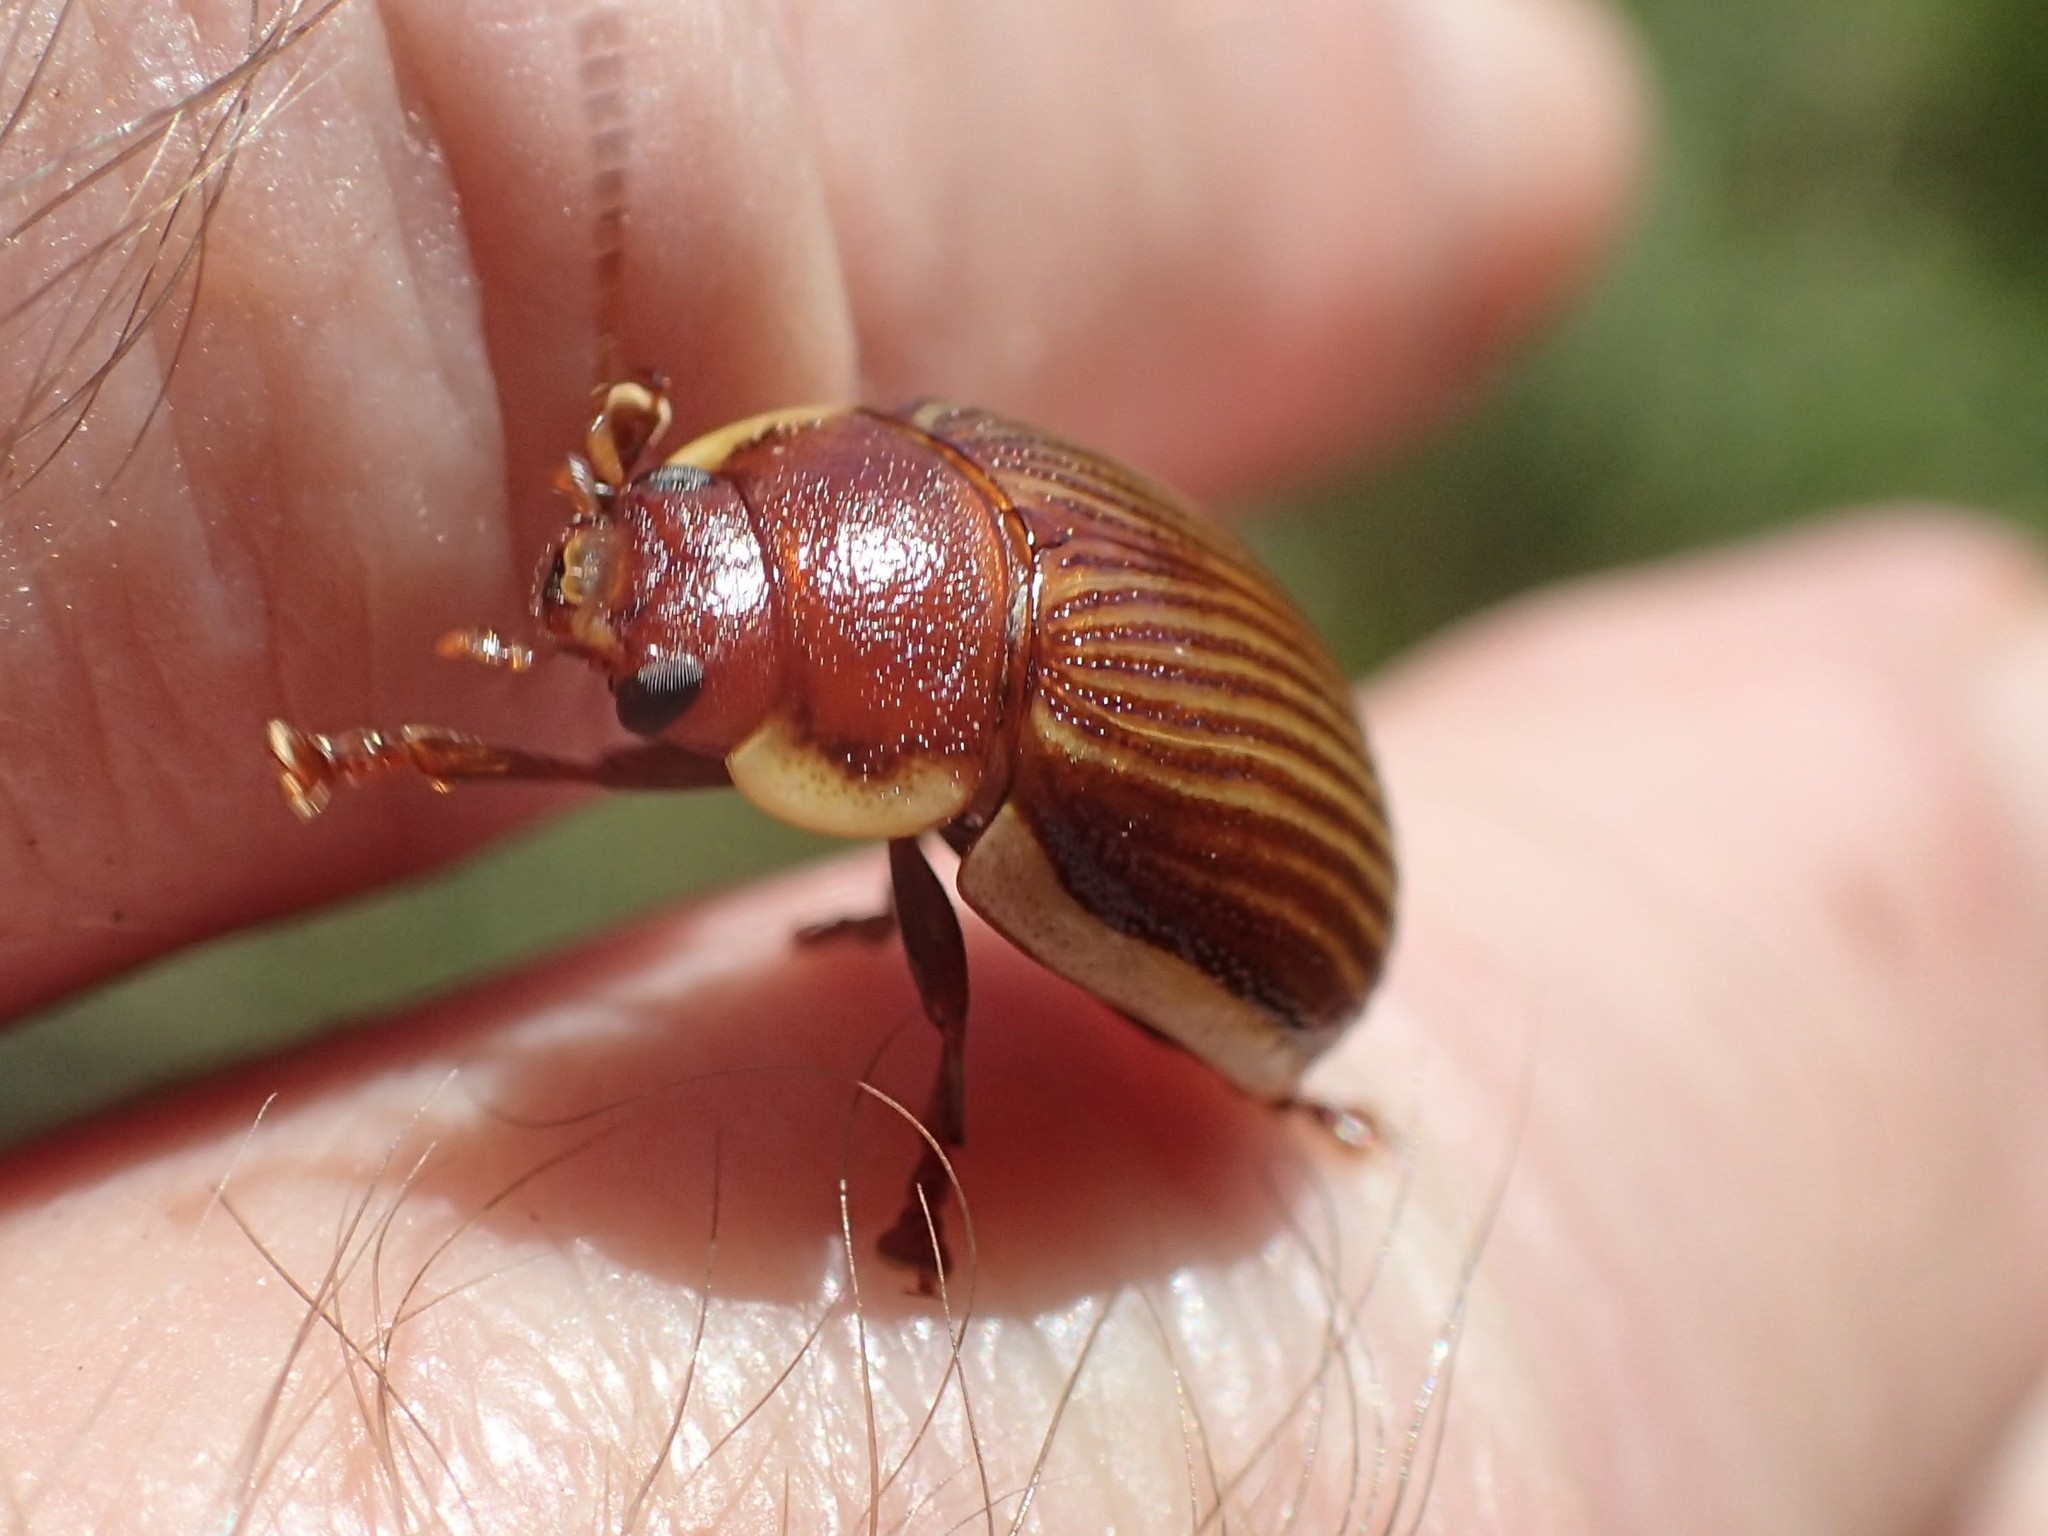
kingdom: Animalia
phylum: Arthropoda
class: Insecta
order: Coleoptera
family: Chrysomelidae
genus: Paropsisterna
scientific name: Paropsisterna
